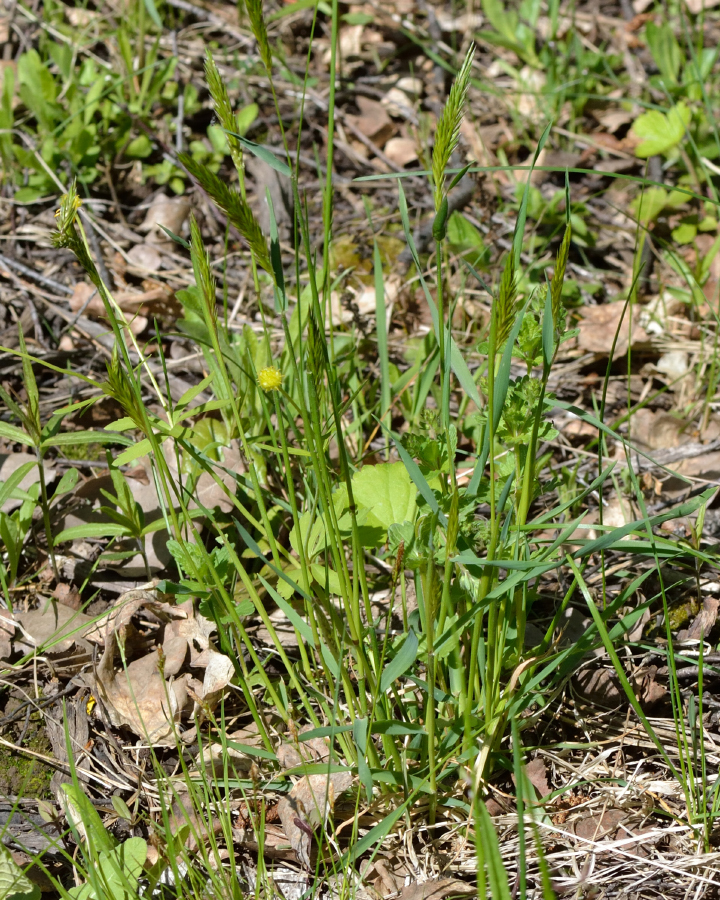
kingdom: Plantae
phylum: Tracheophyta
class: Liliopsida
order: Poales
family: Poaceae
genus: Anthoxanthum
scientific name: Anthoxanthum odoratum
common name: Sweet vernalgrass
